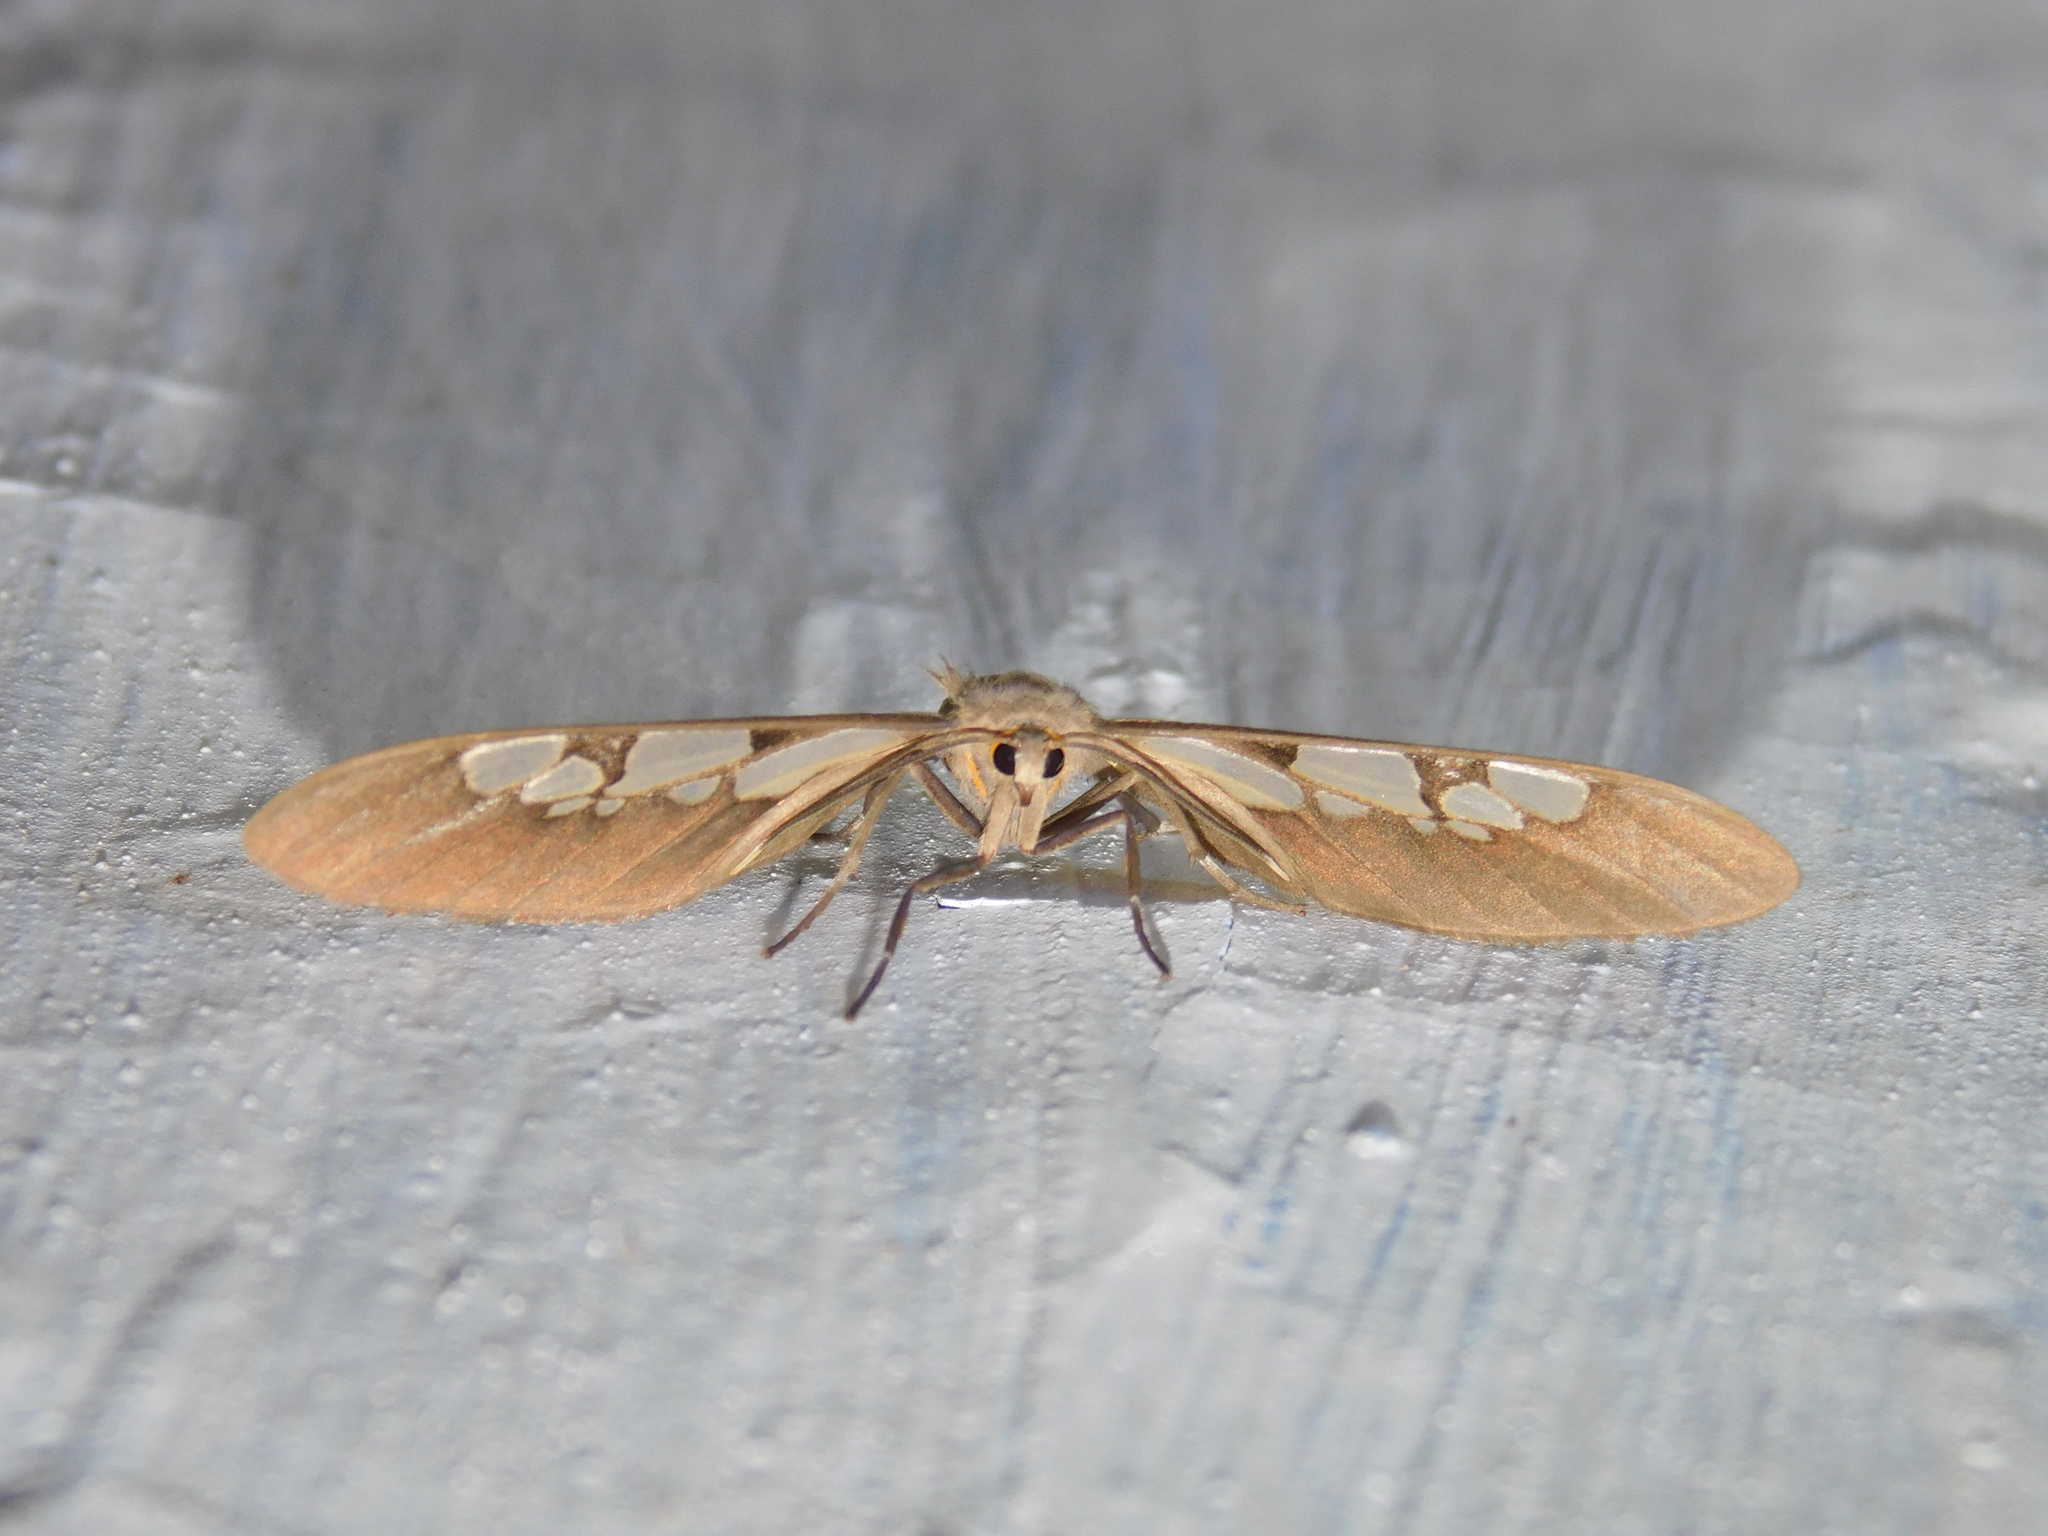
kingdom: Animalia
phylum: Arthropoda
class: Insecta
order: Lepidoptera
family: Erebidae
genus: Amata
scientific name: Amata extensa
